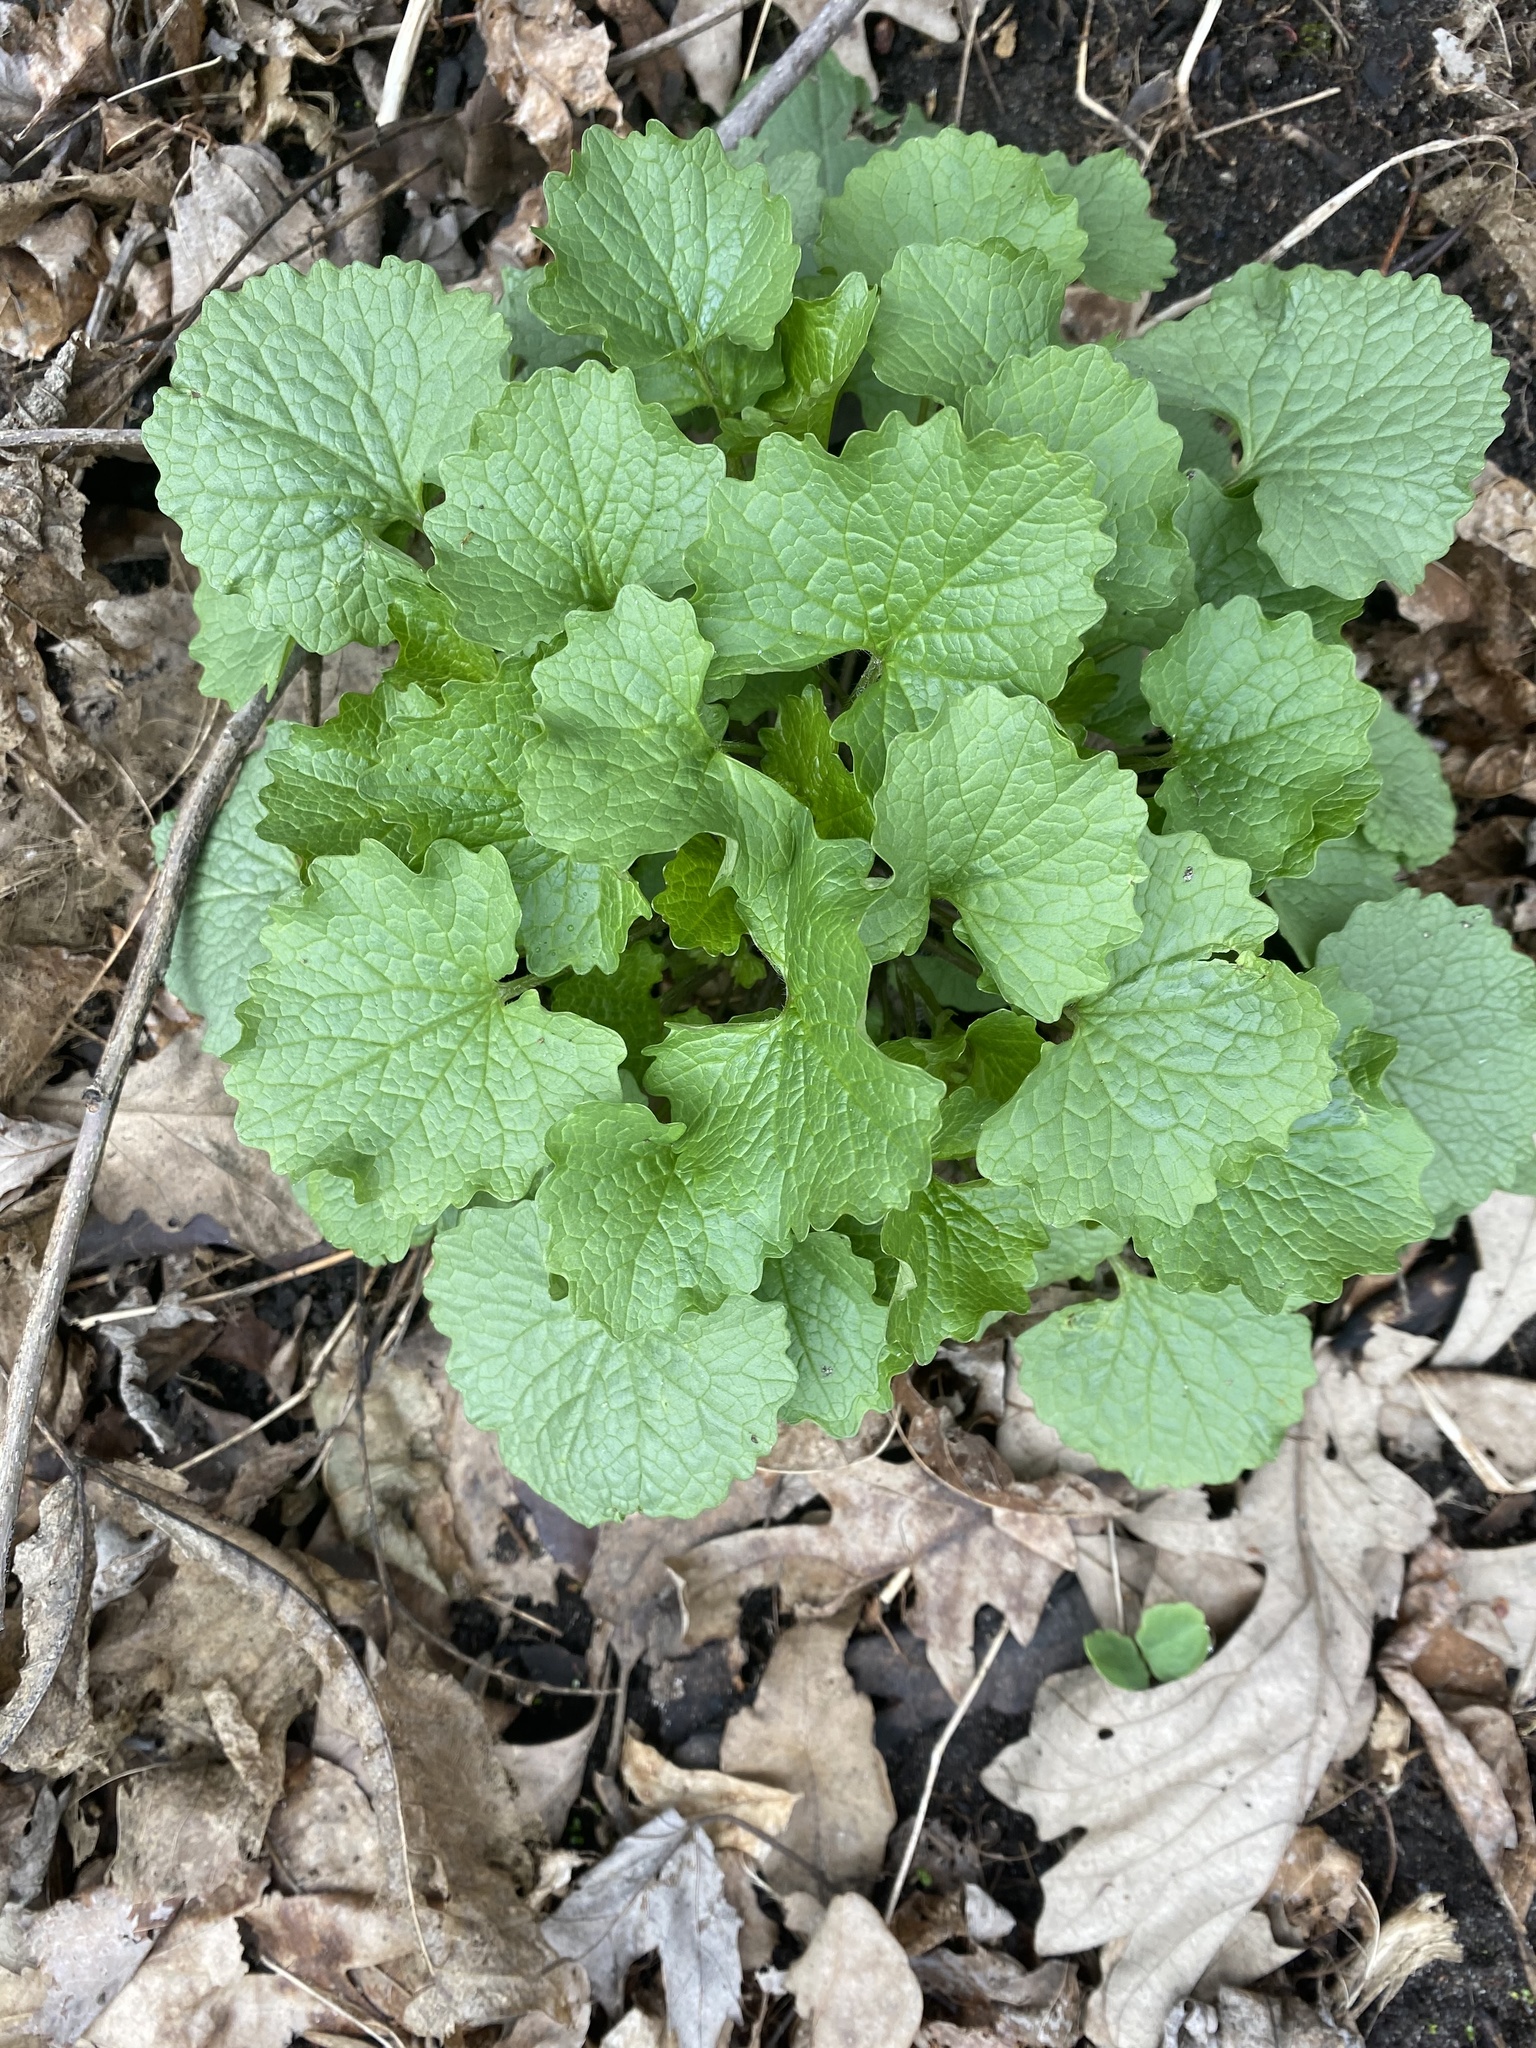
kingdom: Plantae
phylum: Tracheophyta
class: Magnoliopsida
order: Brassicales
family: Brassicaceae
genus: Alliaria
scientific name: Alliaria petiolata
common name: Garlic mustard
